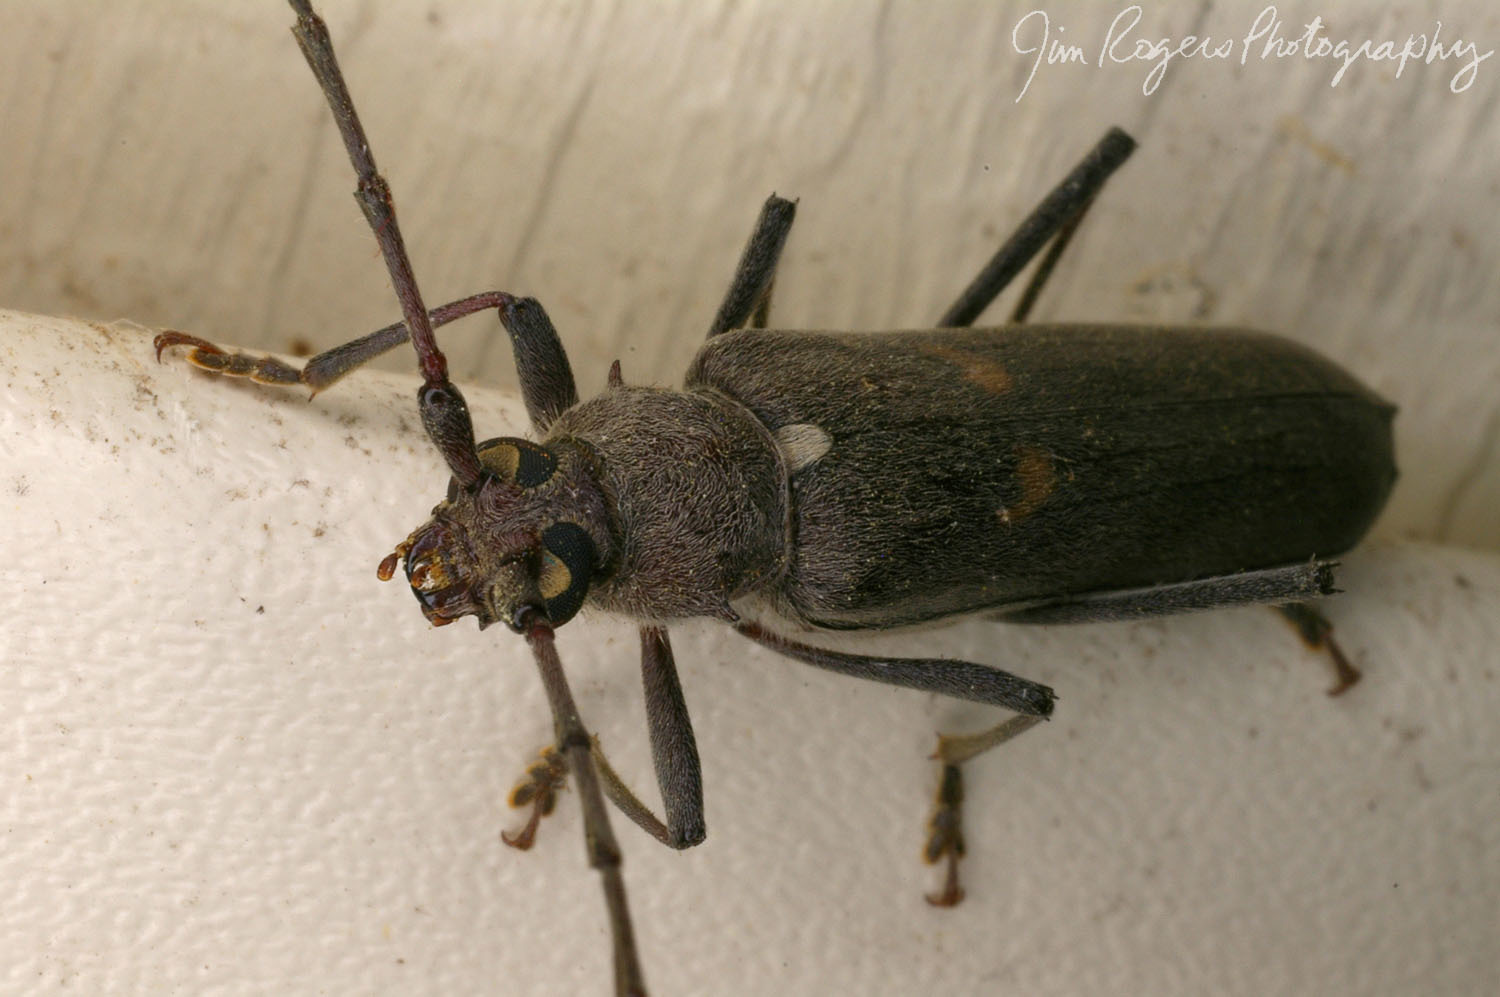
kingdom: Animalia
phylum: Arthropoda
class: Insecta
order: Coleoptera
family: Cerambycidae
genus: Knulliana
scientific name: Knulliana cincta
